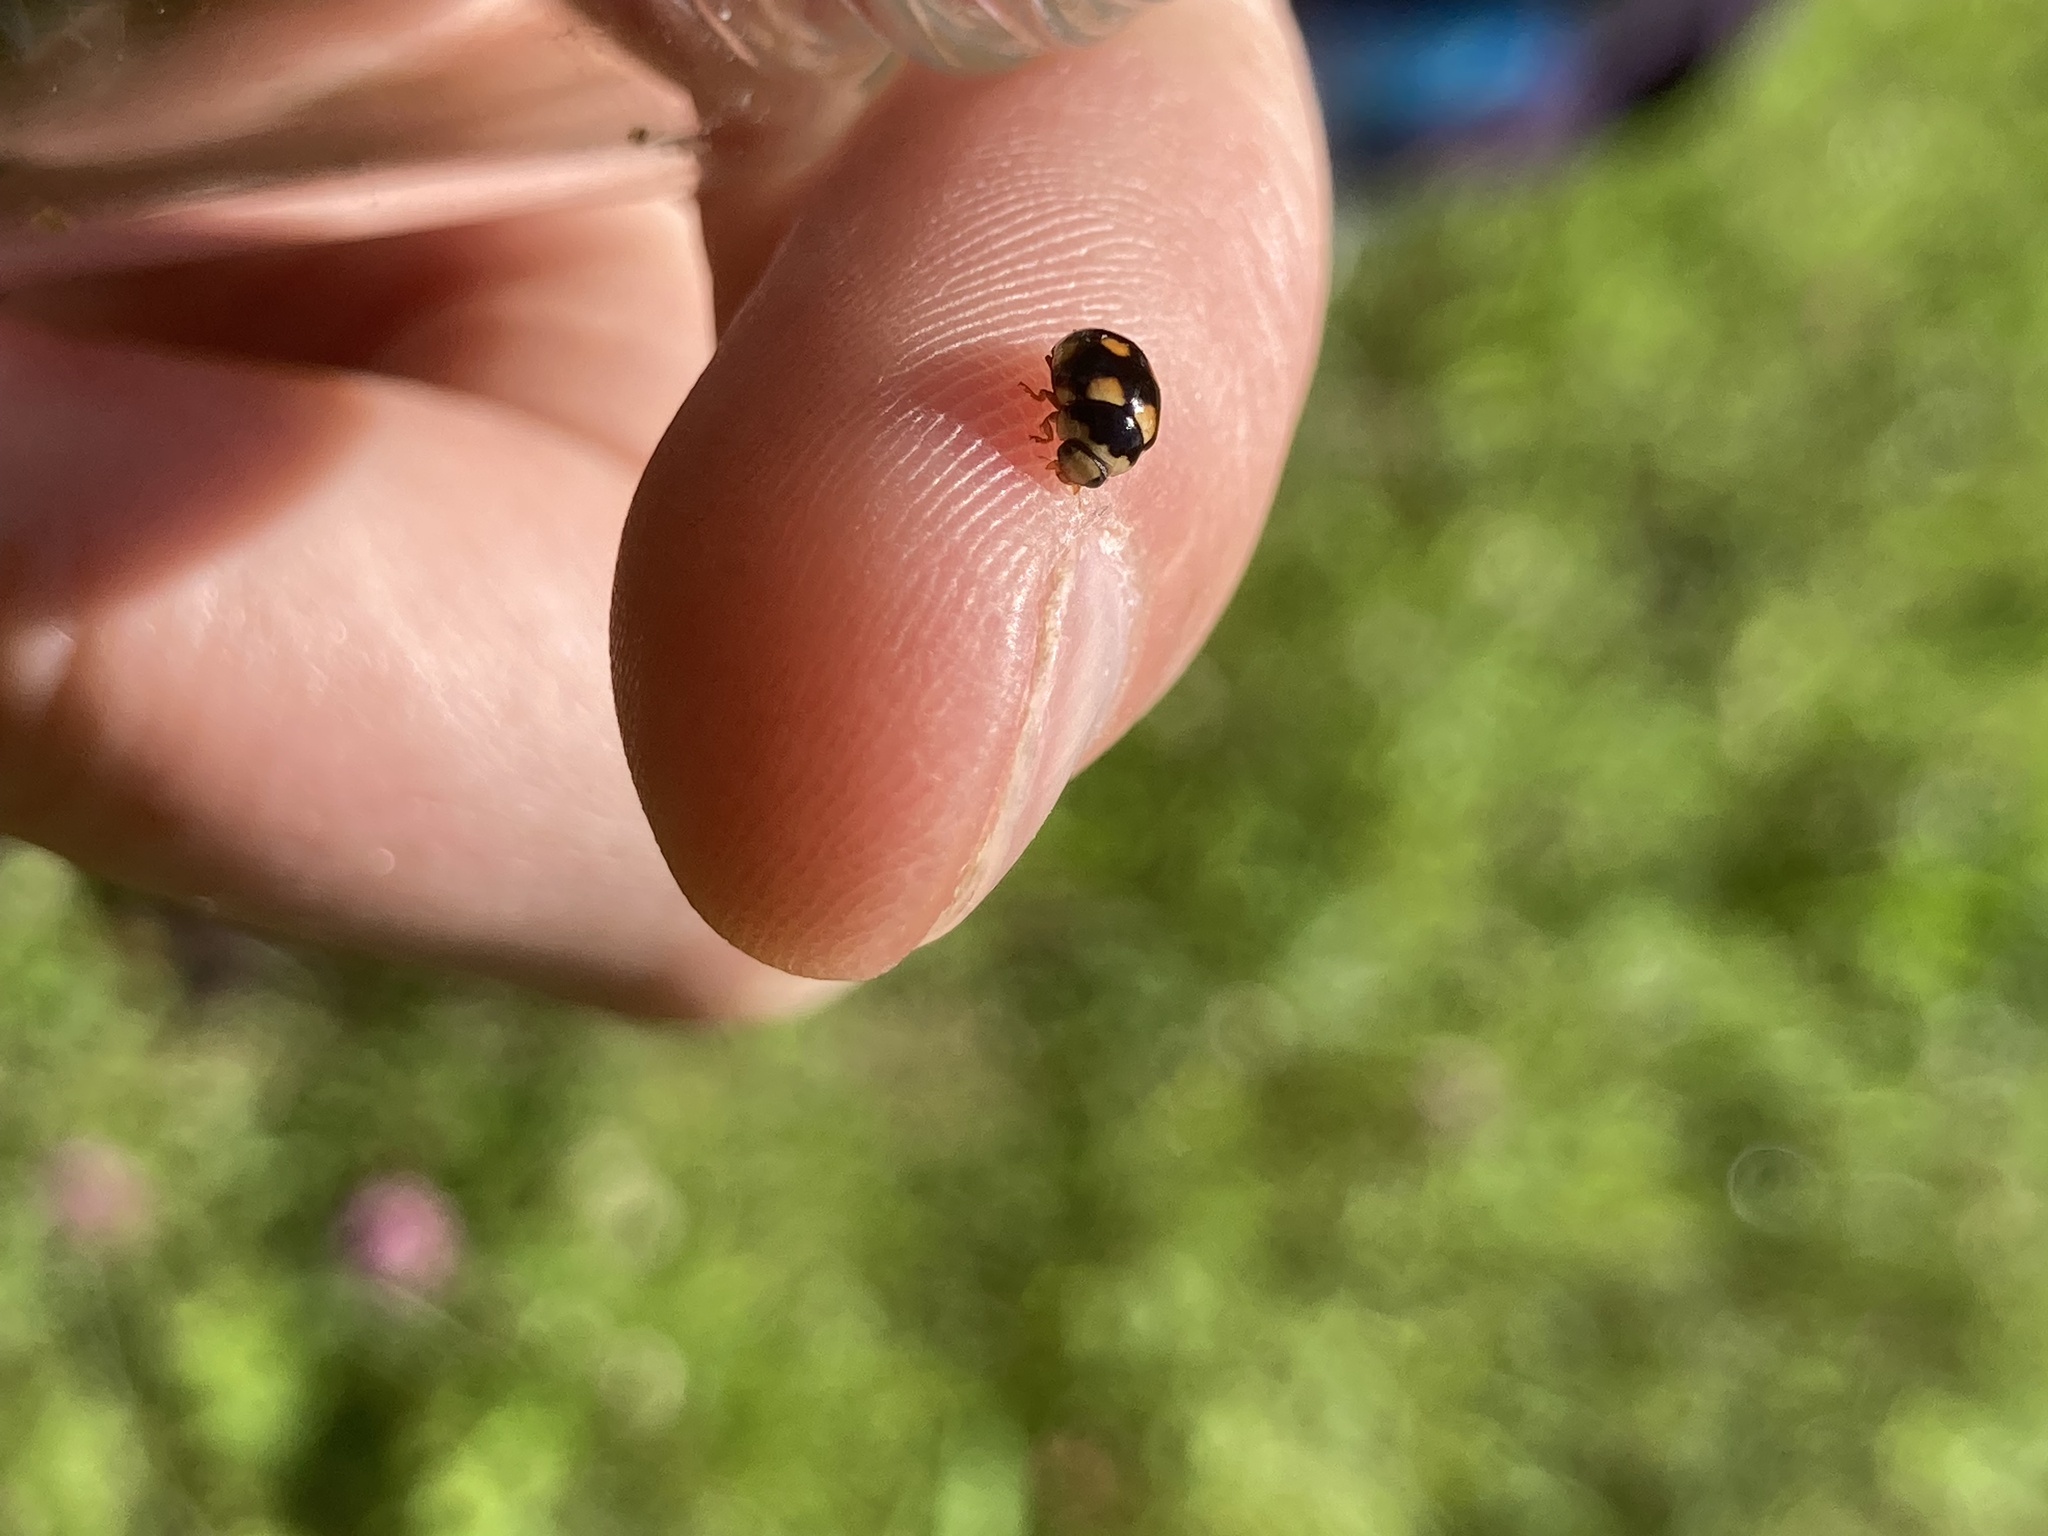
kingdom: Animalia
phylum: Arthropoda
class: Insecta
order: Coleoptera
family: Coccinellidae
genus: Brachiacantha
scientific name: Brachiacantha ursina
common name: Ursine spurleg lady beetle
